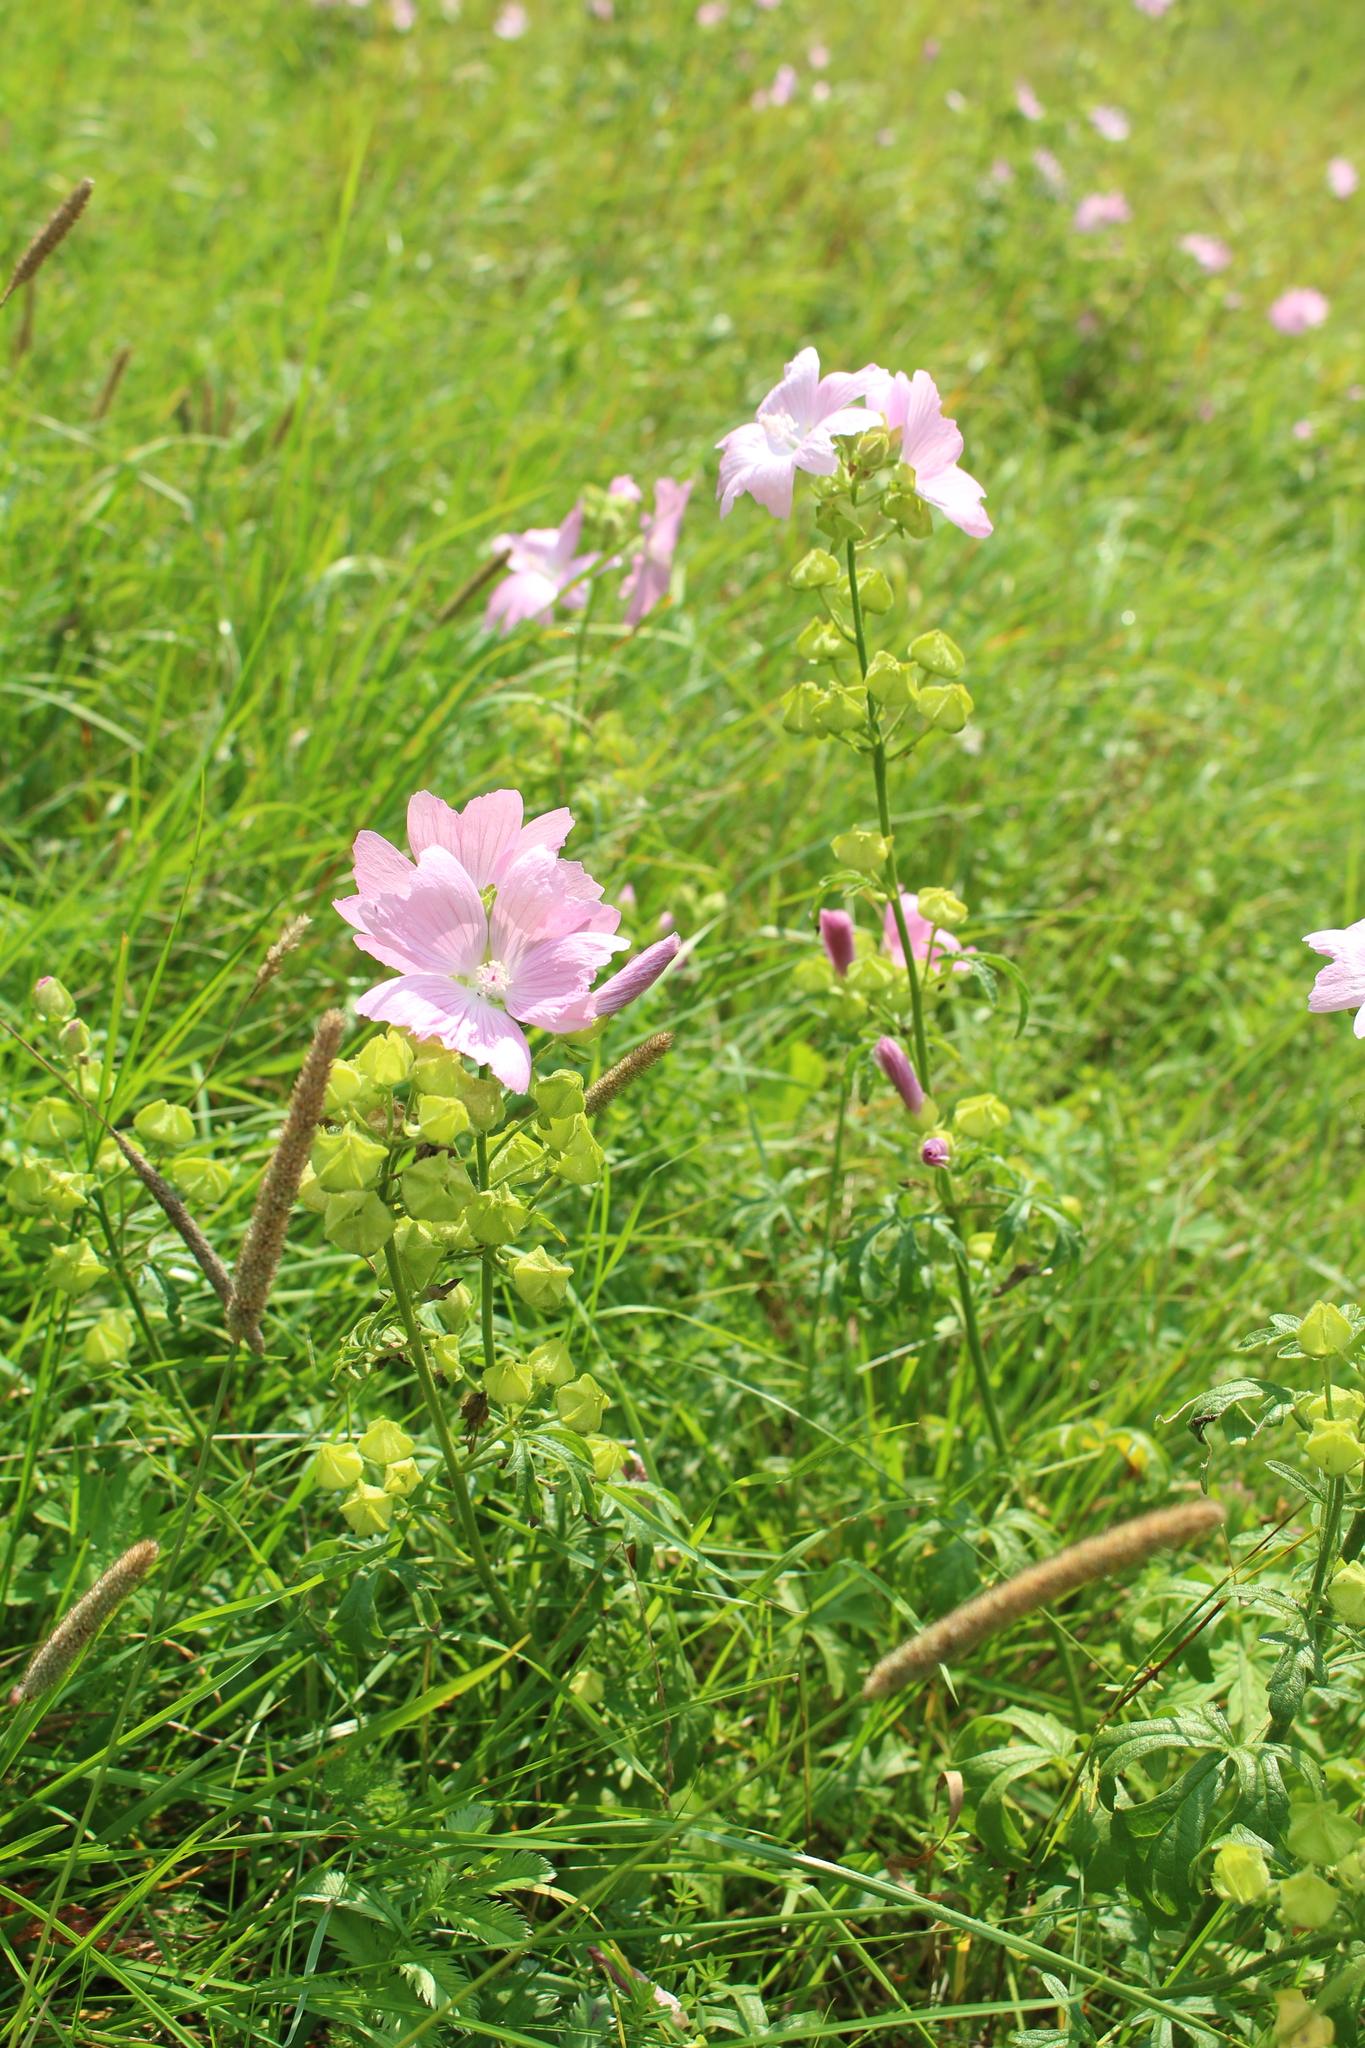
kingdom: Plantae
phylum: Tracheophyta
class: Magnoliopsida
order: Malvales
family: Malvaceae
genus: Malva
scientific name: Malva moschata
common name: Musk mallow
